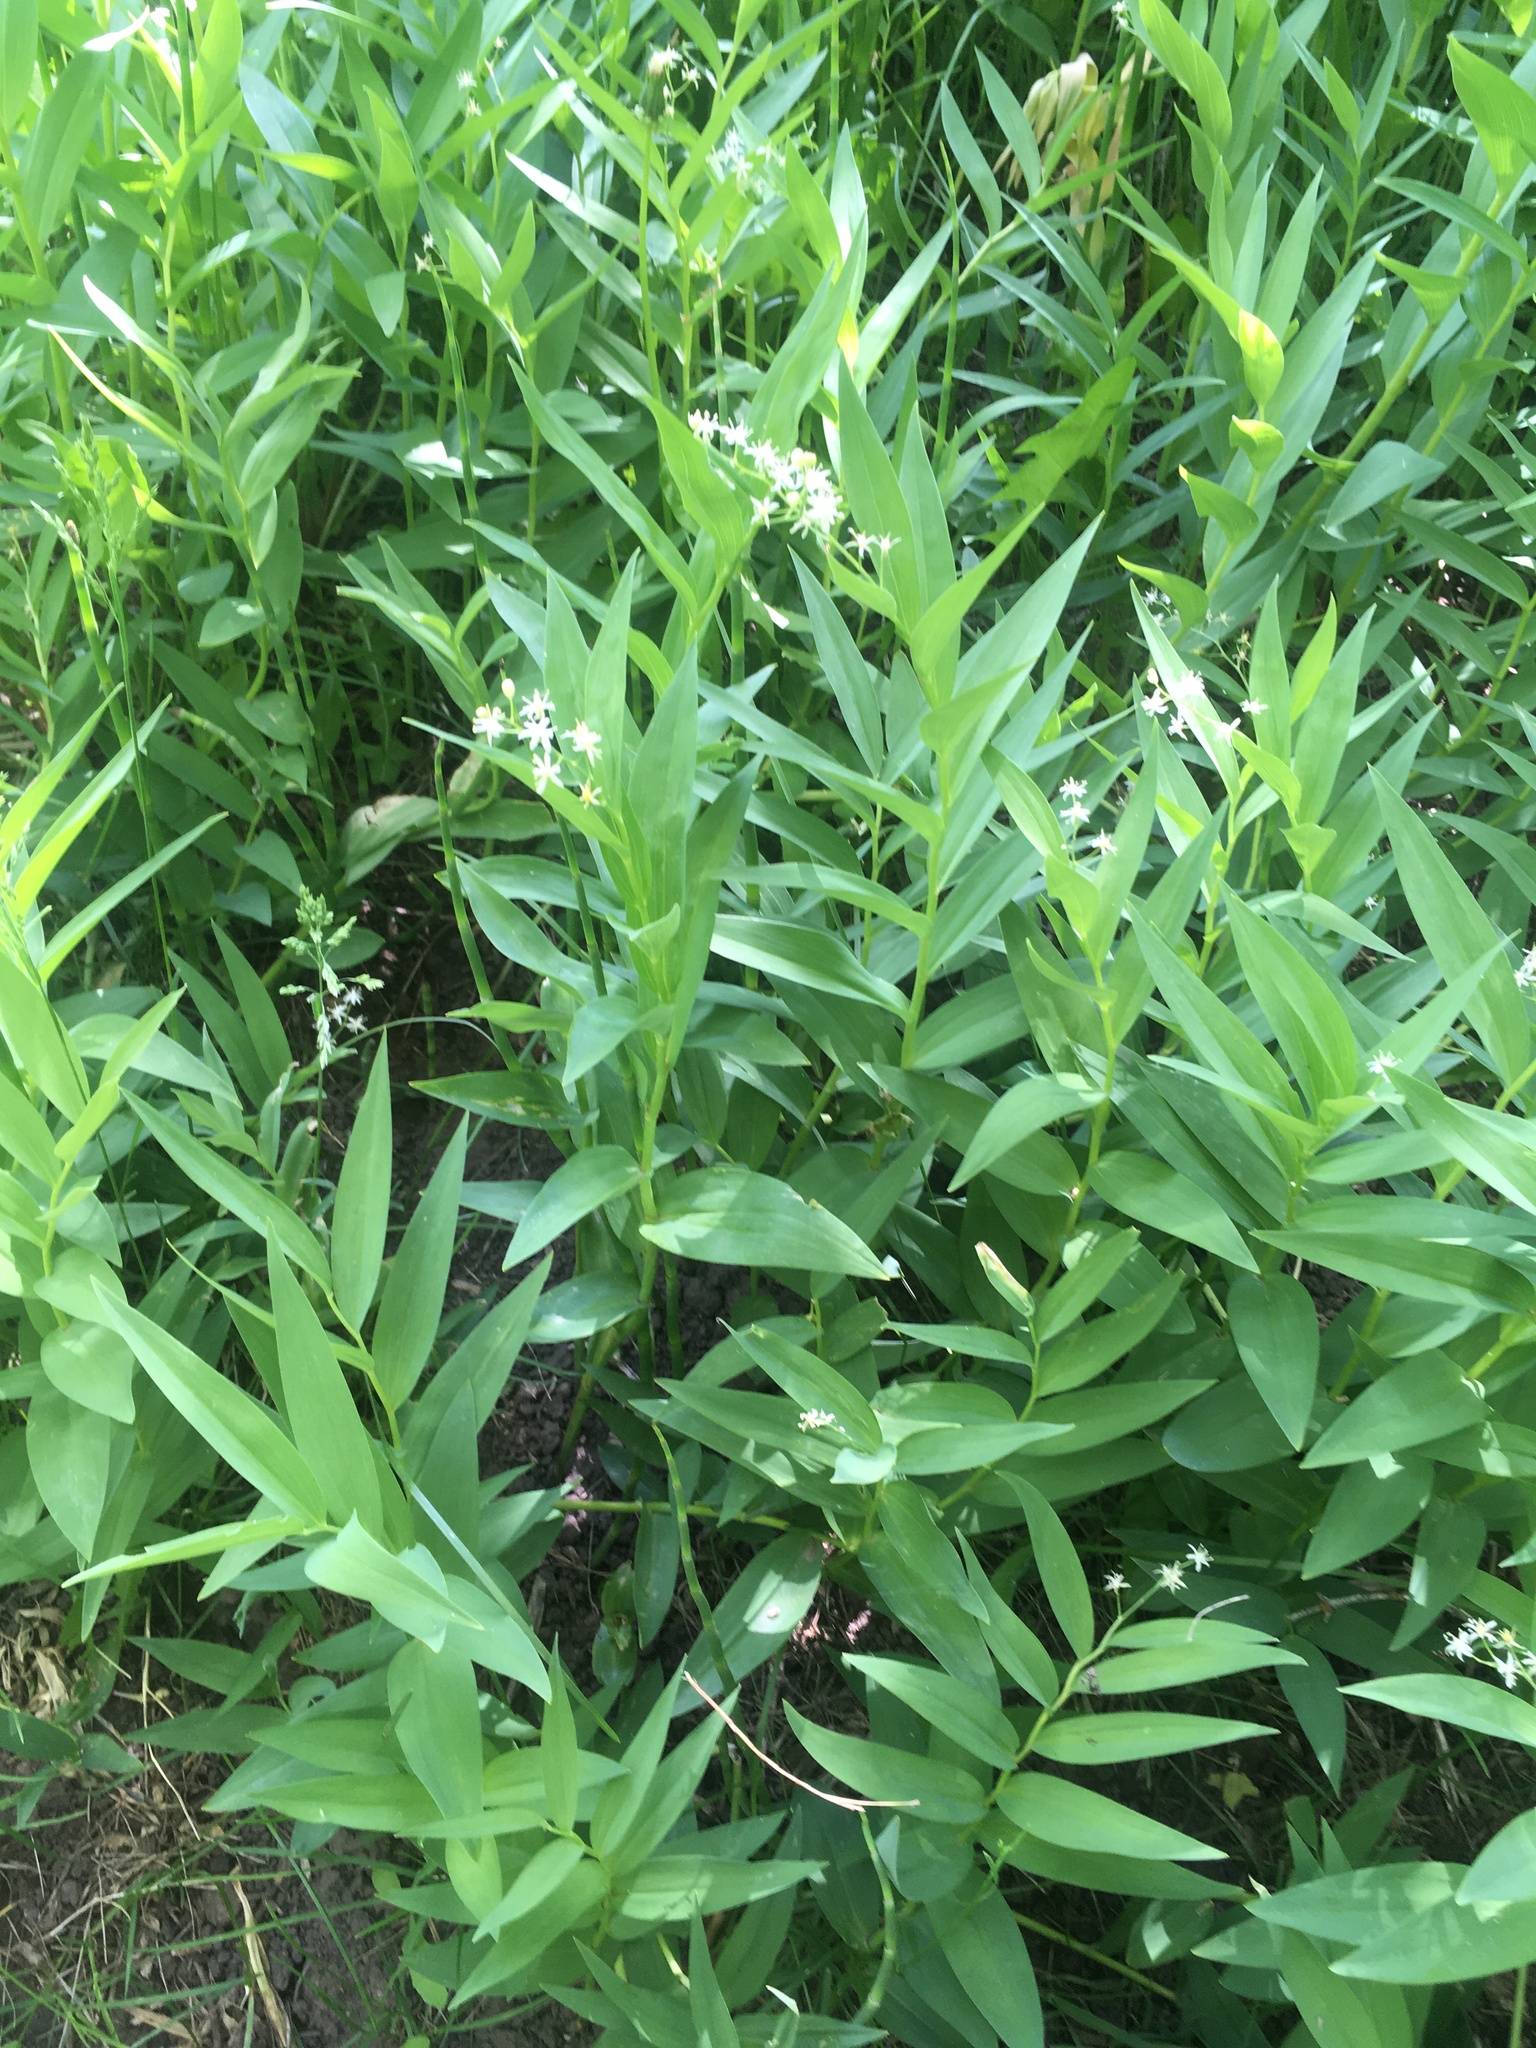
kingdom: Plantae
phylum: Tracheophyta
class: Liliopsida
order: Asparagales
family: Asparagaceae
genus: Maianthemum
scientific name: Maianthemum stellatum
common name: Little false solomon's seal
